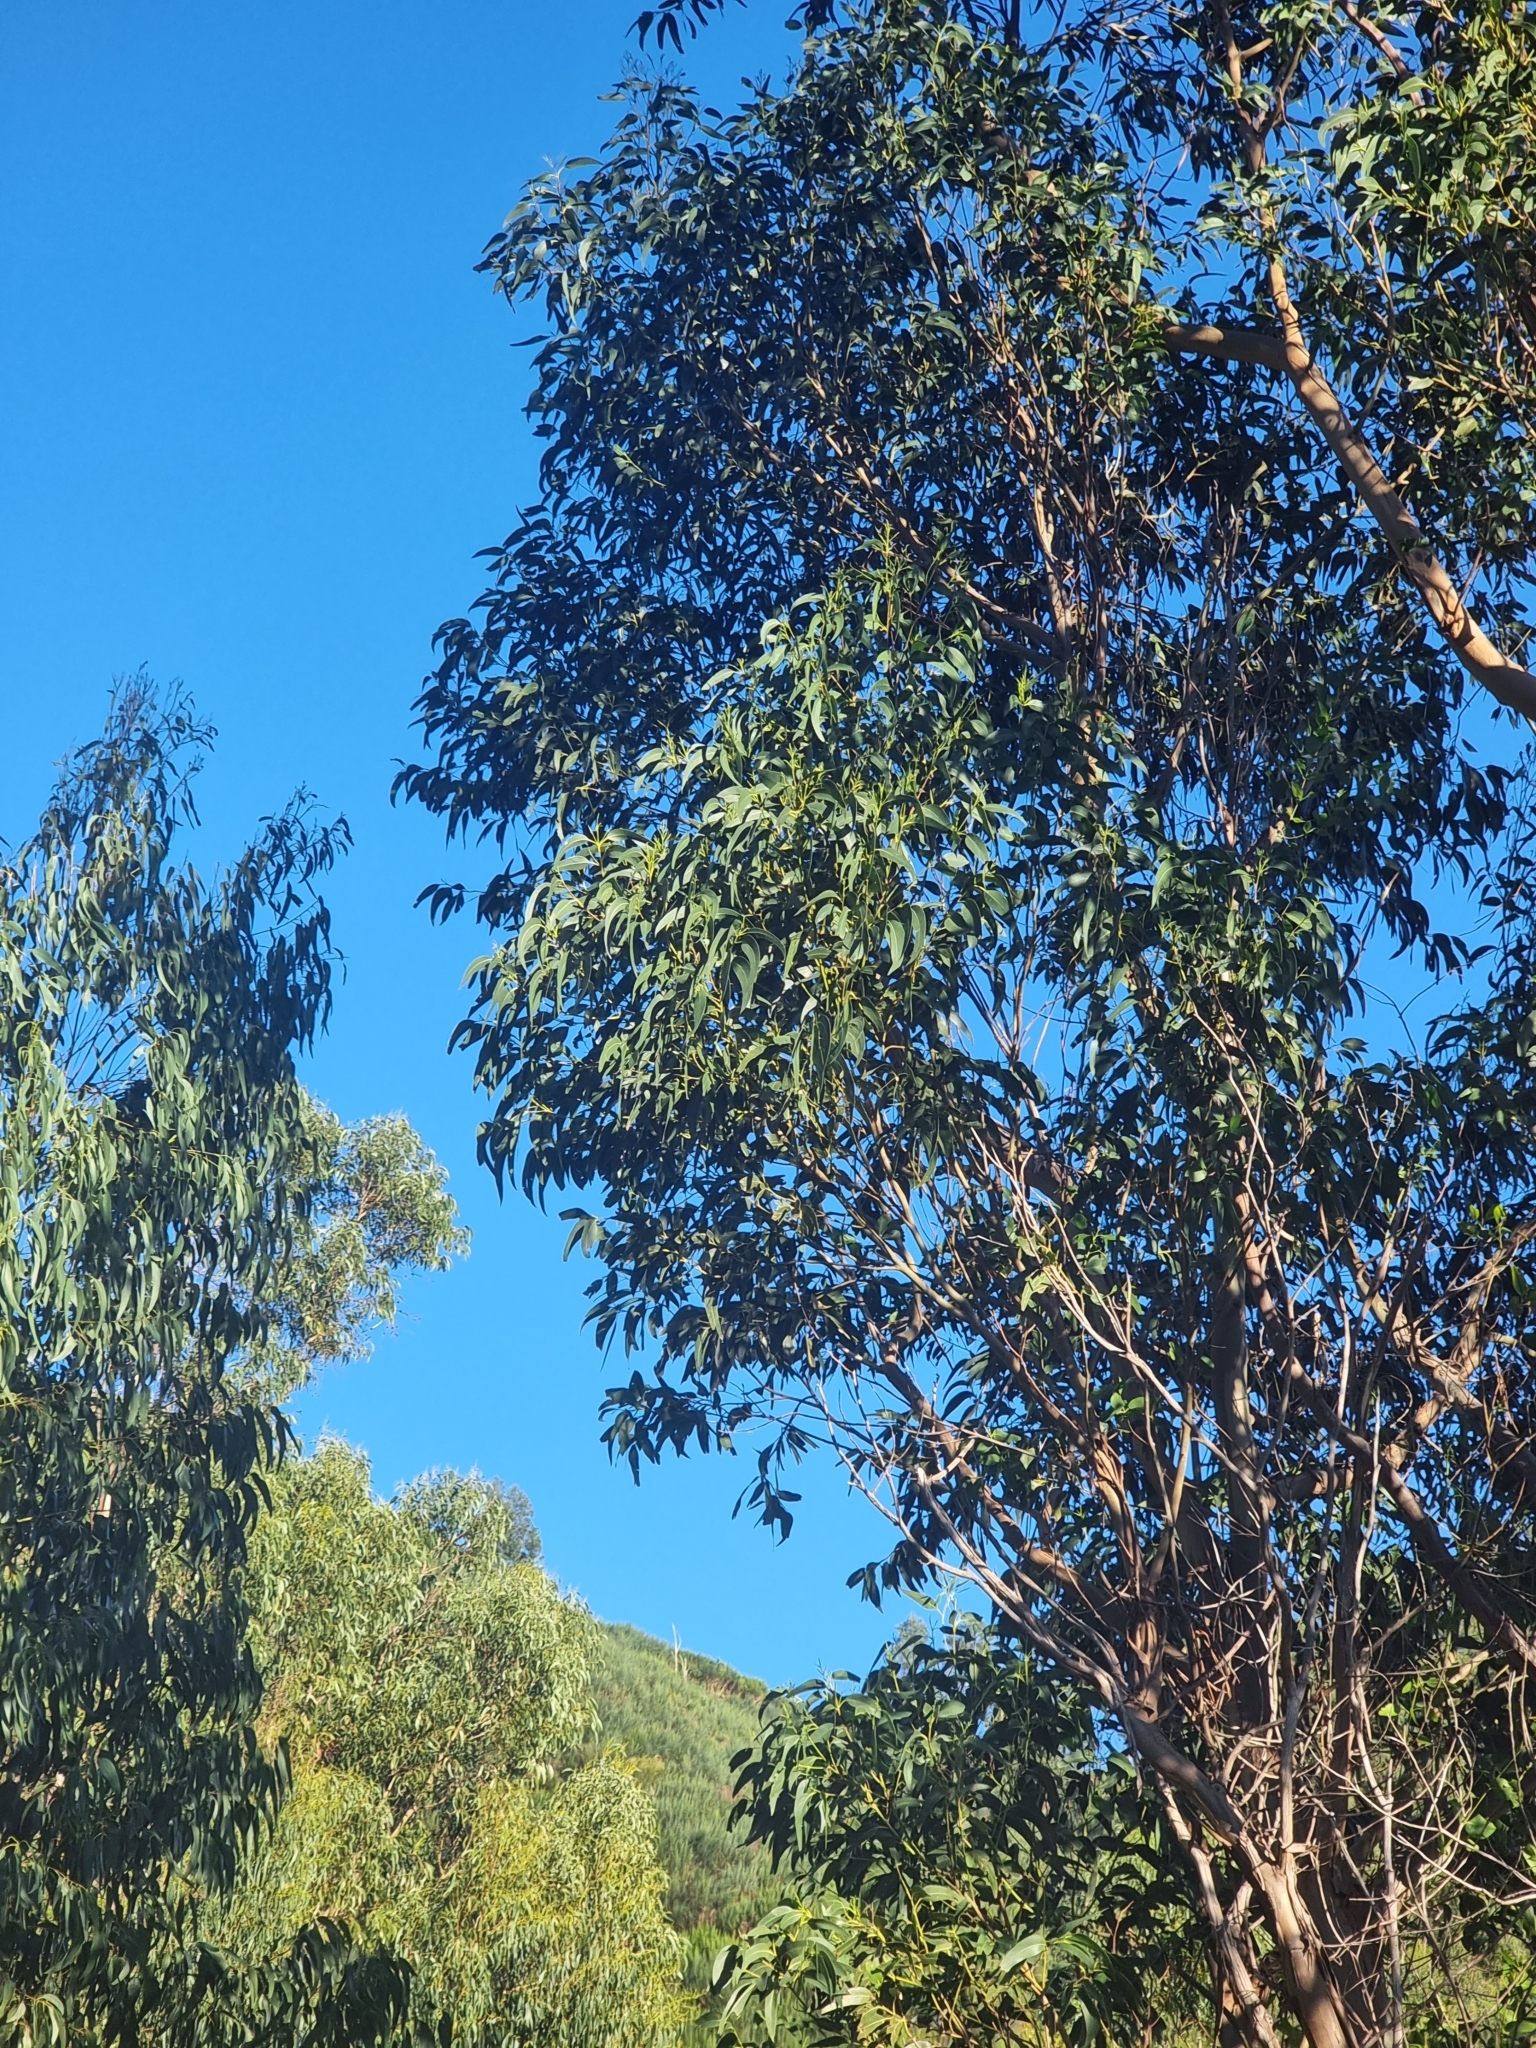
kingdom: Plantae
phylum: Tracheophyta
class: Magnoliopsida
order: Myrtales
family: Myrtaceae
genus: Eucalyptus
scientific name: Eucalyptus globulus
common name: Southern blue-gum
